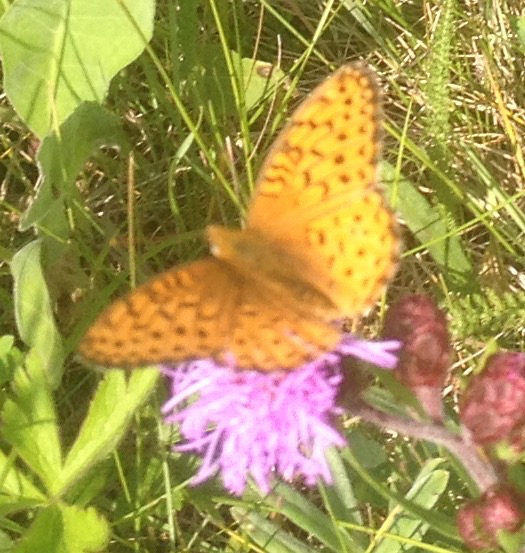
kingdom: Animalia
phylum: Arthropoda
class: Insecta
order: Lepidoptera
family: Nymphalidae
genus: Speyeria
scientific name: Speyeria atlantis
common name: Atlantis fritillary
